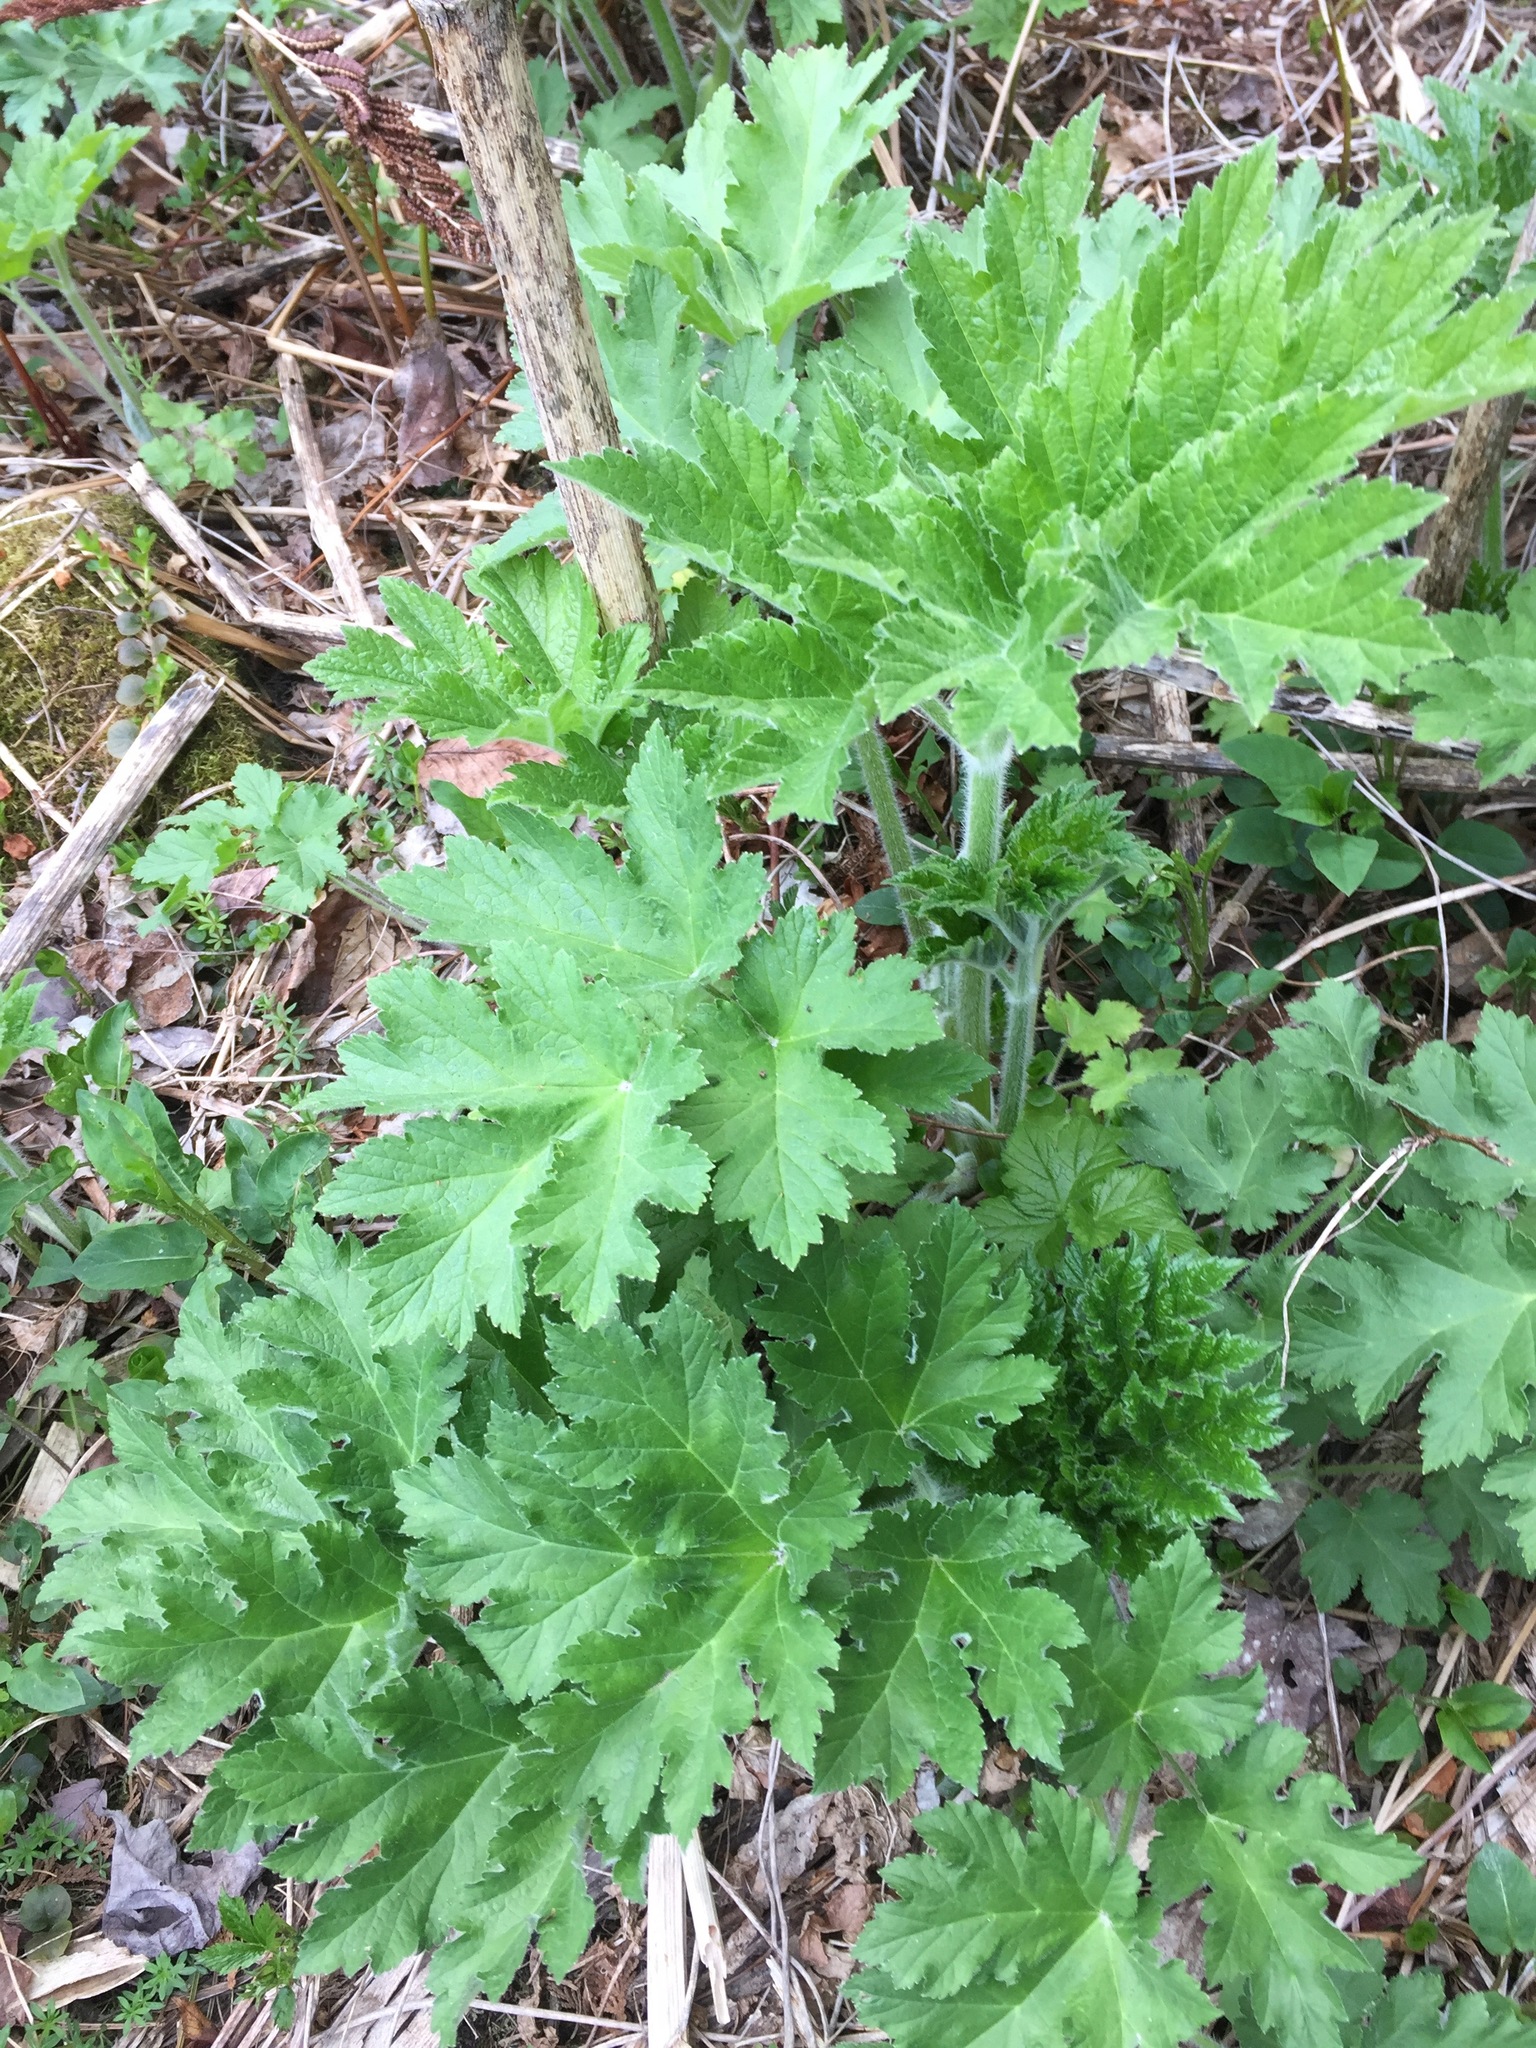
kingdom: Plantae
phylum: Tracheophyta
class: Magnoliopsida
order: Apiales
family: Apiaceae
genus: Heracleum
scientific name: Heracleum maximum
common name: American cow parsnip
